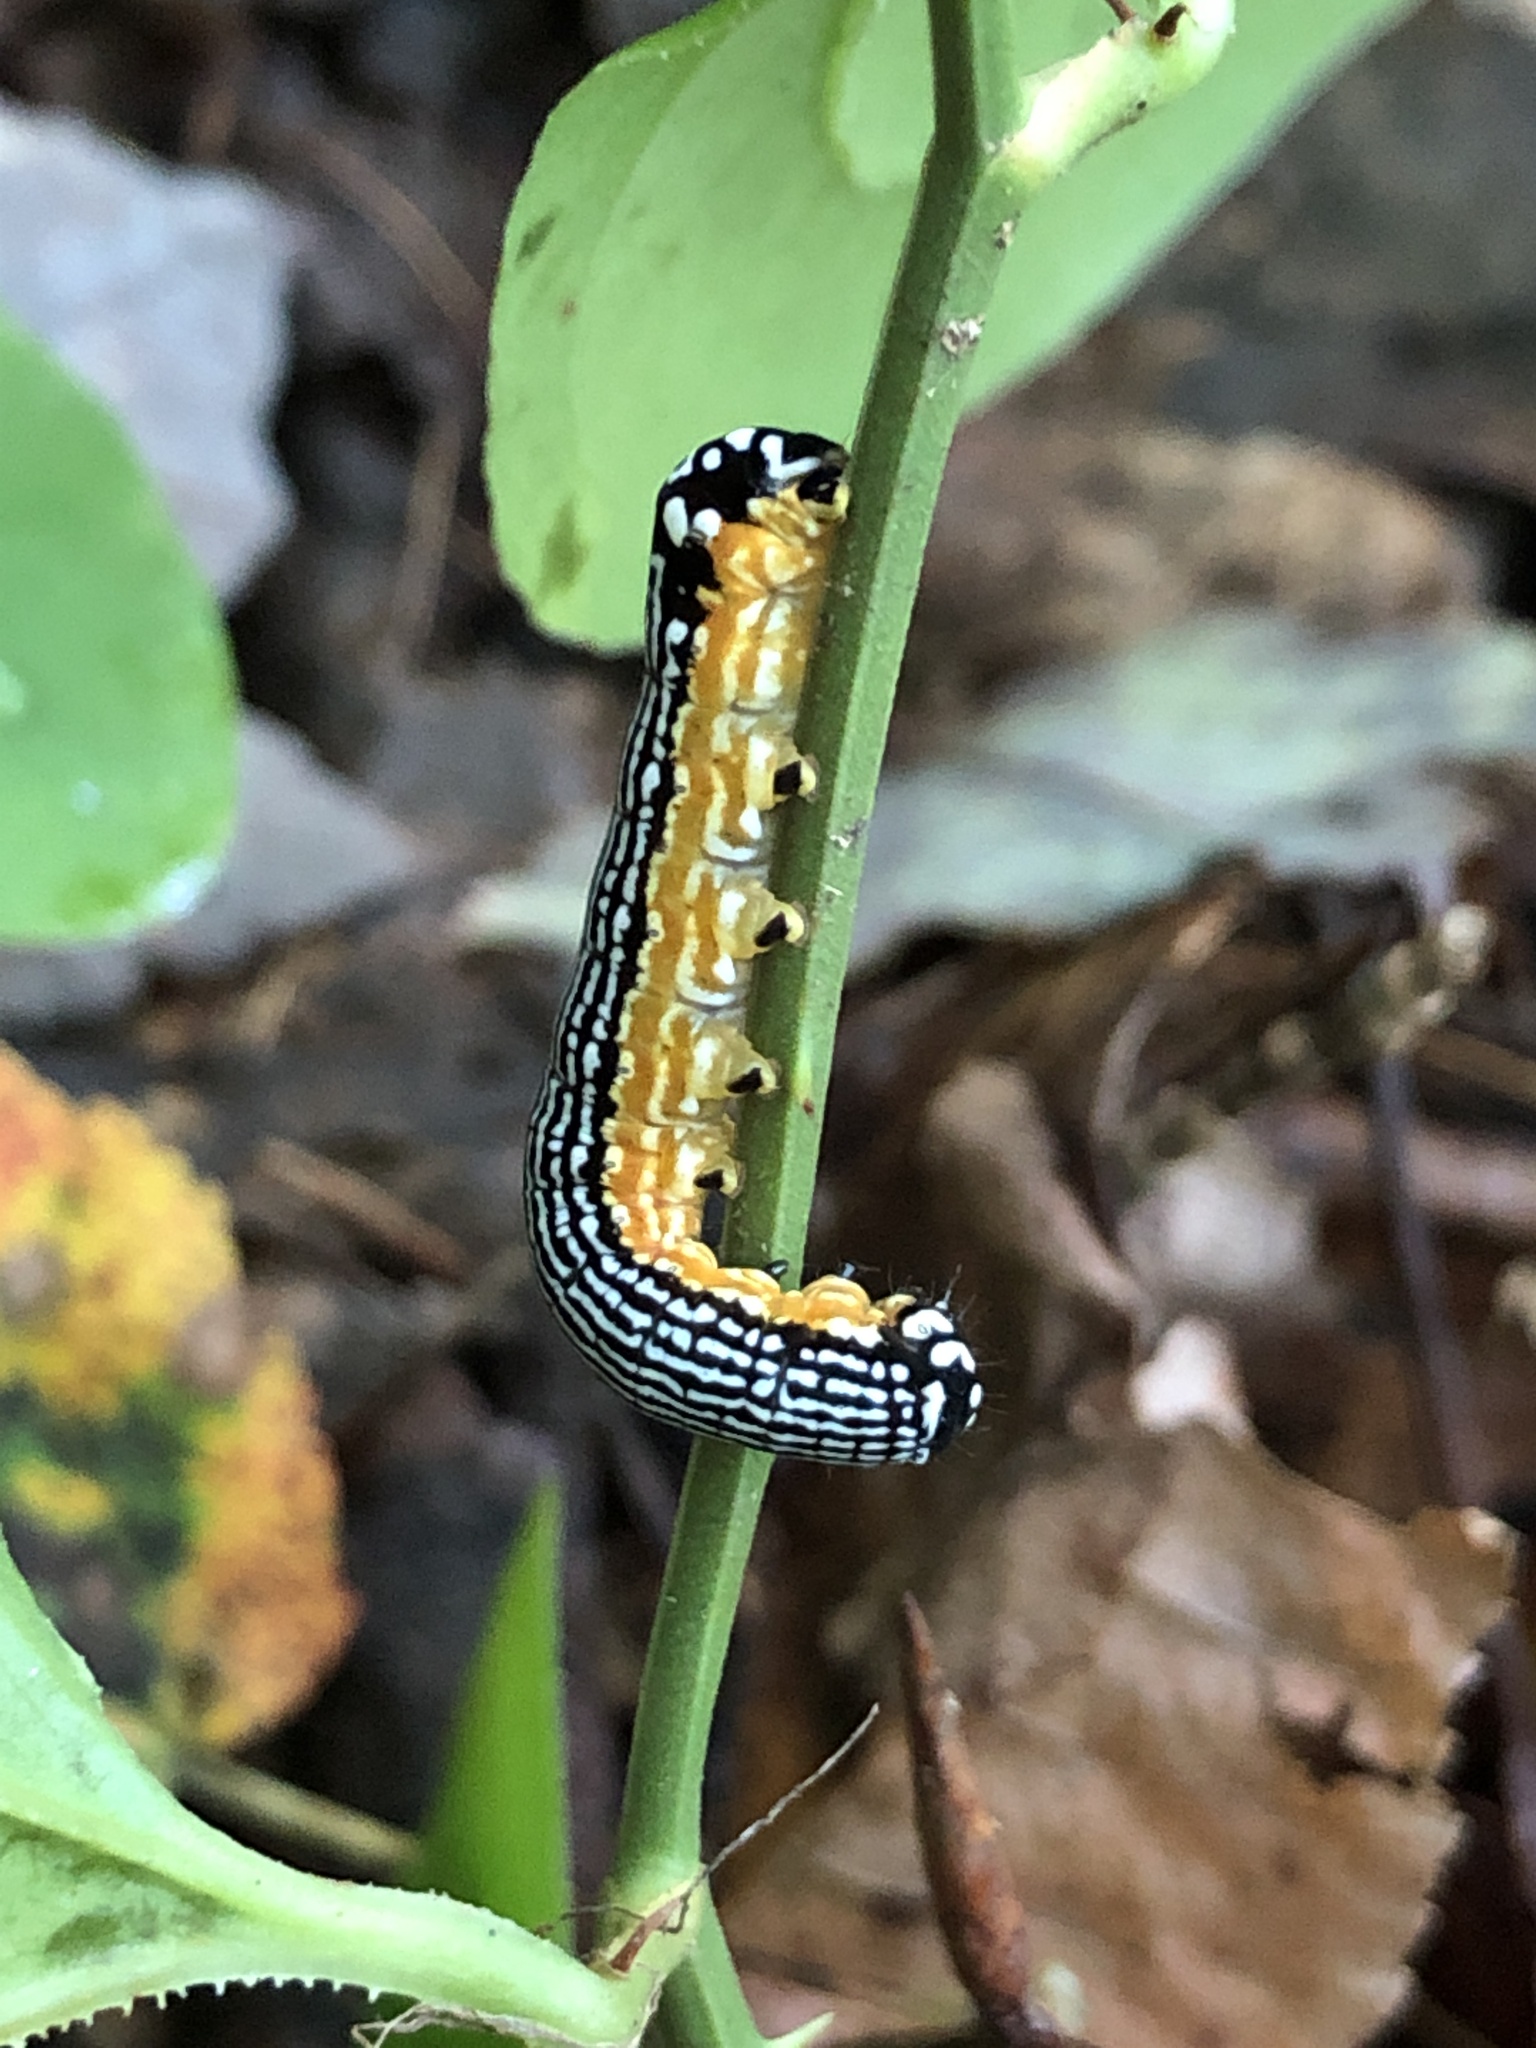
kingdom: Animalia
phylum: Arthropoda
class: Insecta
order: Lepidoptera
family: Noctuidae
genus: Phosphila
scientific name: Phosphila turbulenta
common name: Turbulent phosphila moth
